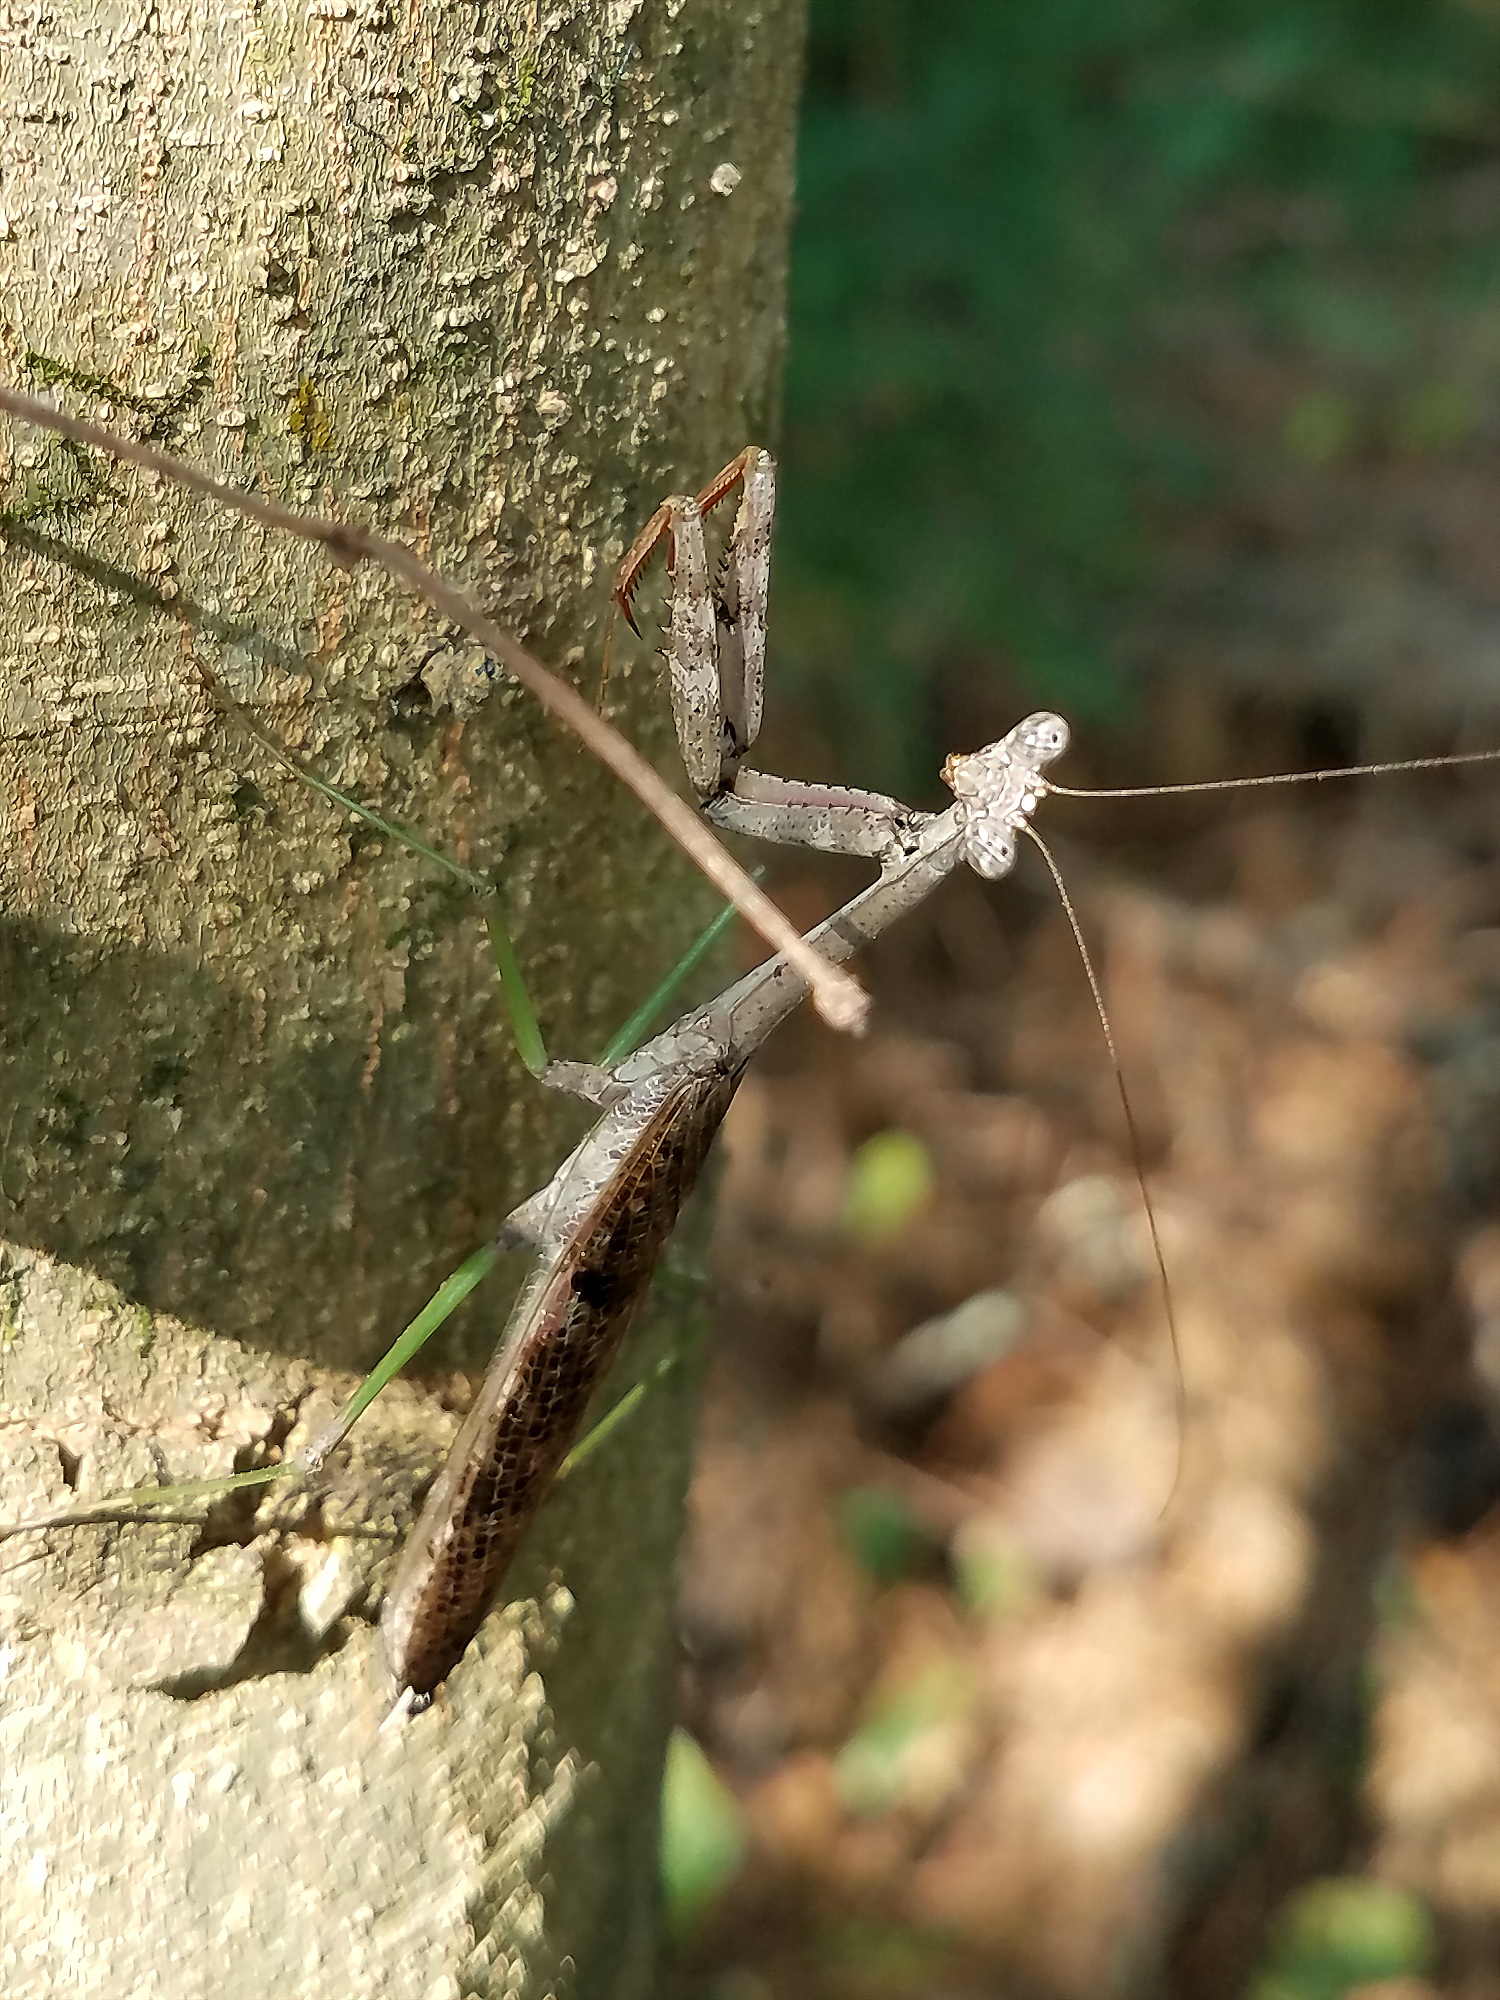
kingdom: Animalia
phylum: Arthropoda
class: Insecta
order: Mantodea
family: Mantidae
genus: Stagmomantis
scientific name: Stagmomantis carolina
